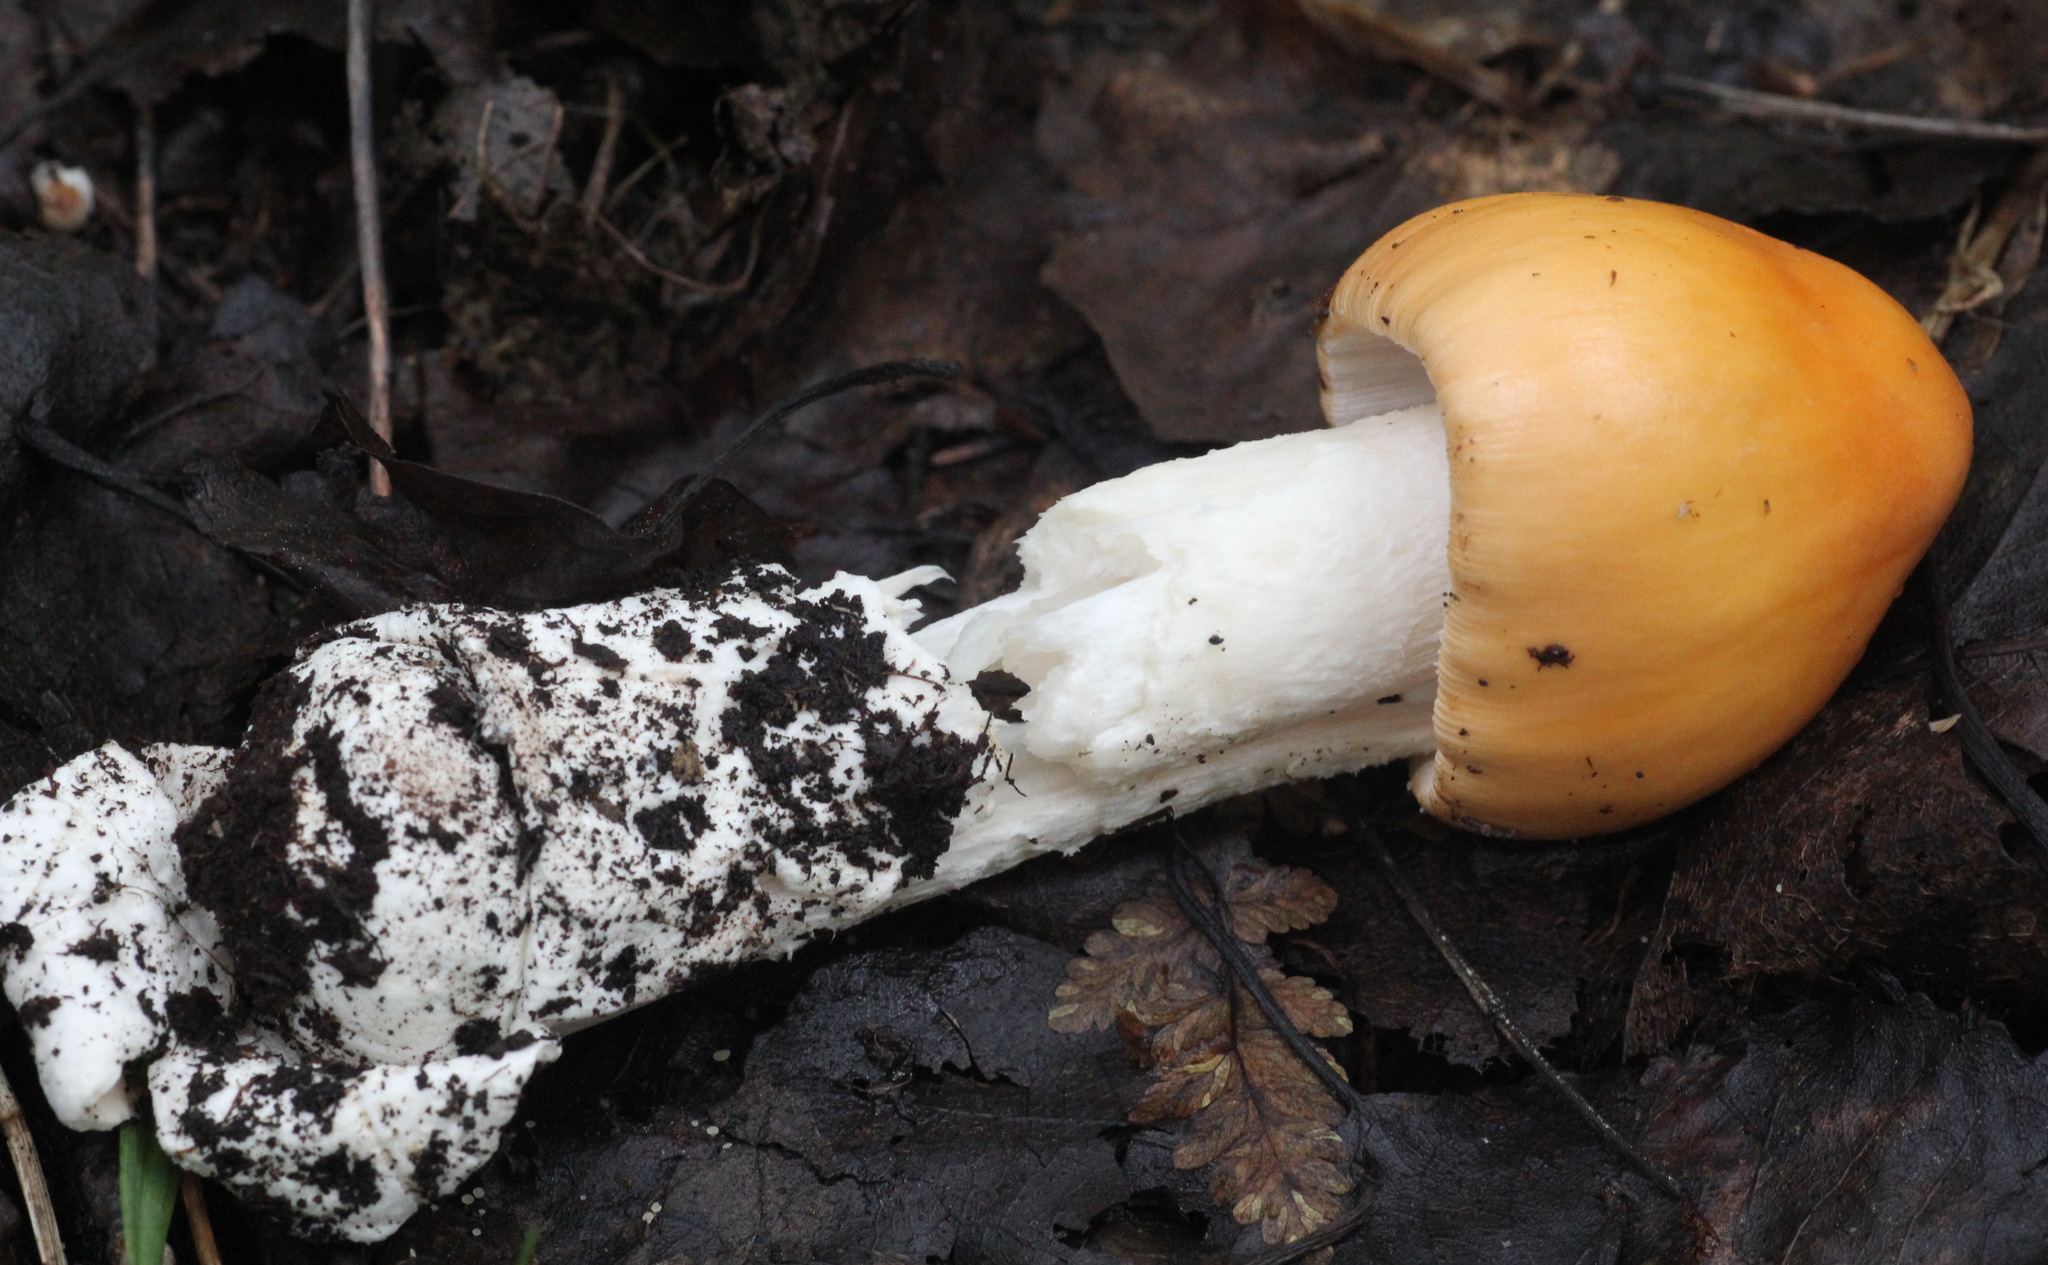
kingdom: Fungi
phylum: Basidiomycota
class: Agaricomycetes
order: Agaricales
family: Amanitaceae
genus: Amanita
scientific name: Amanita contui
